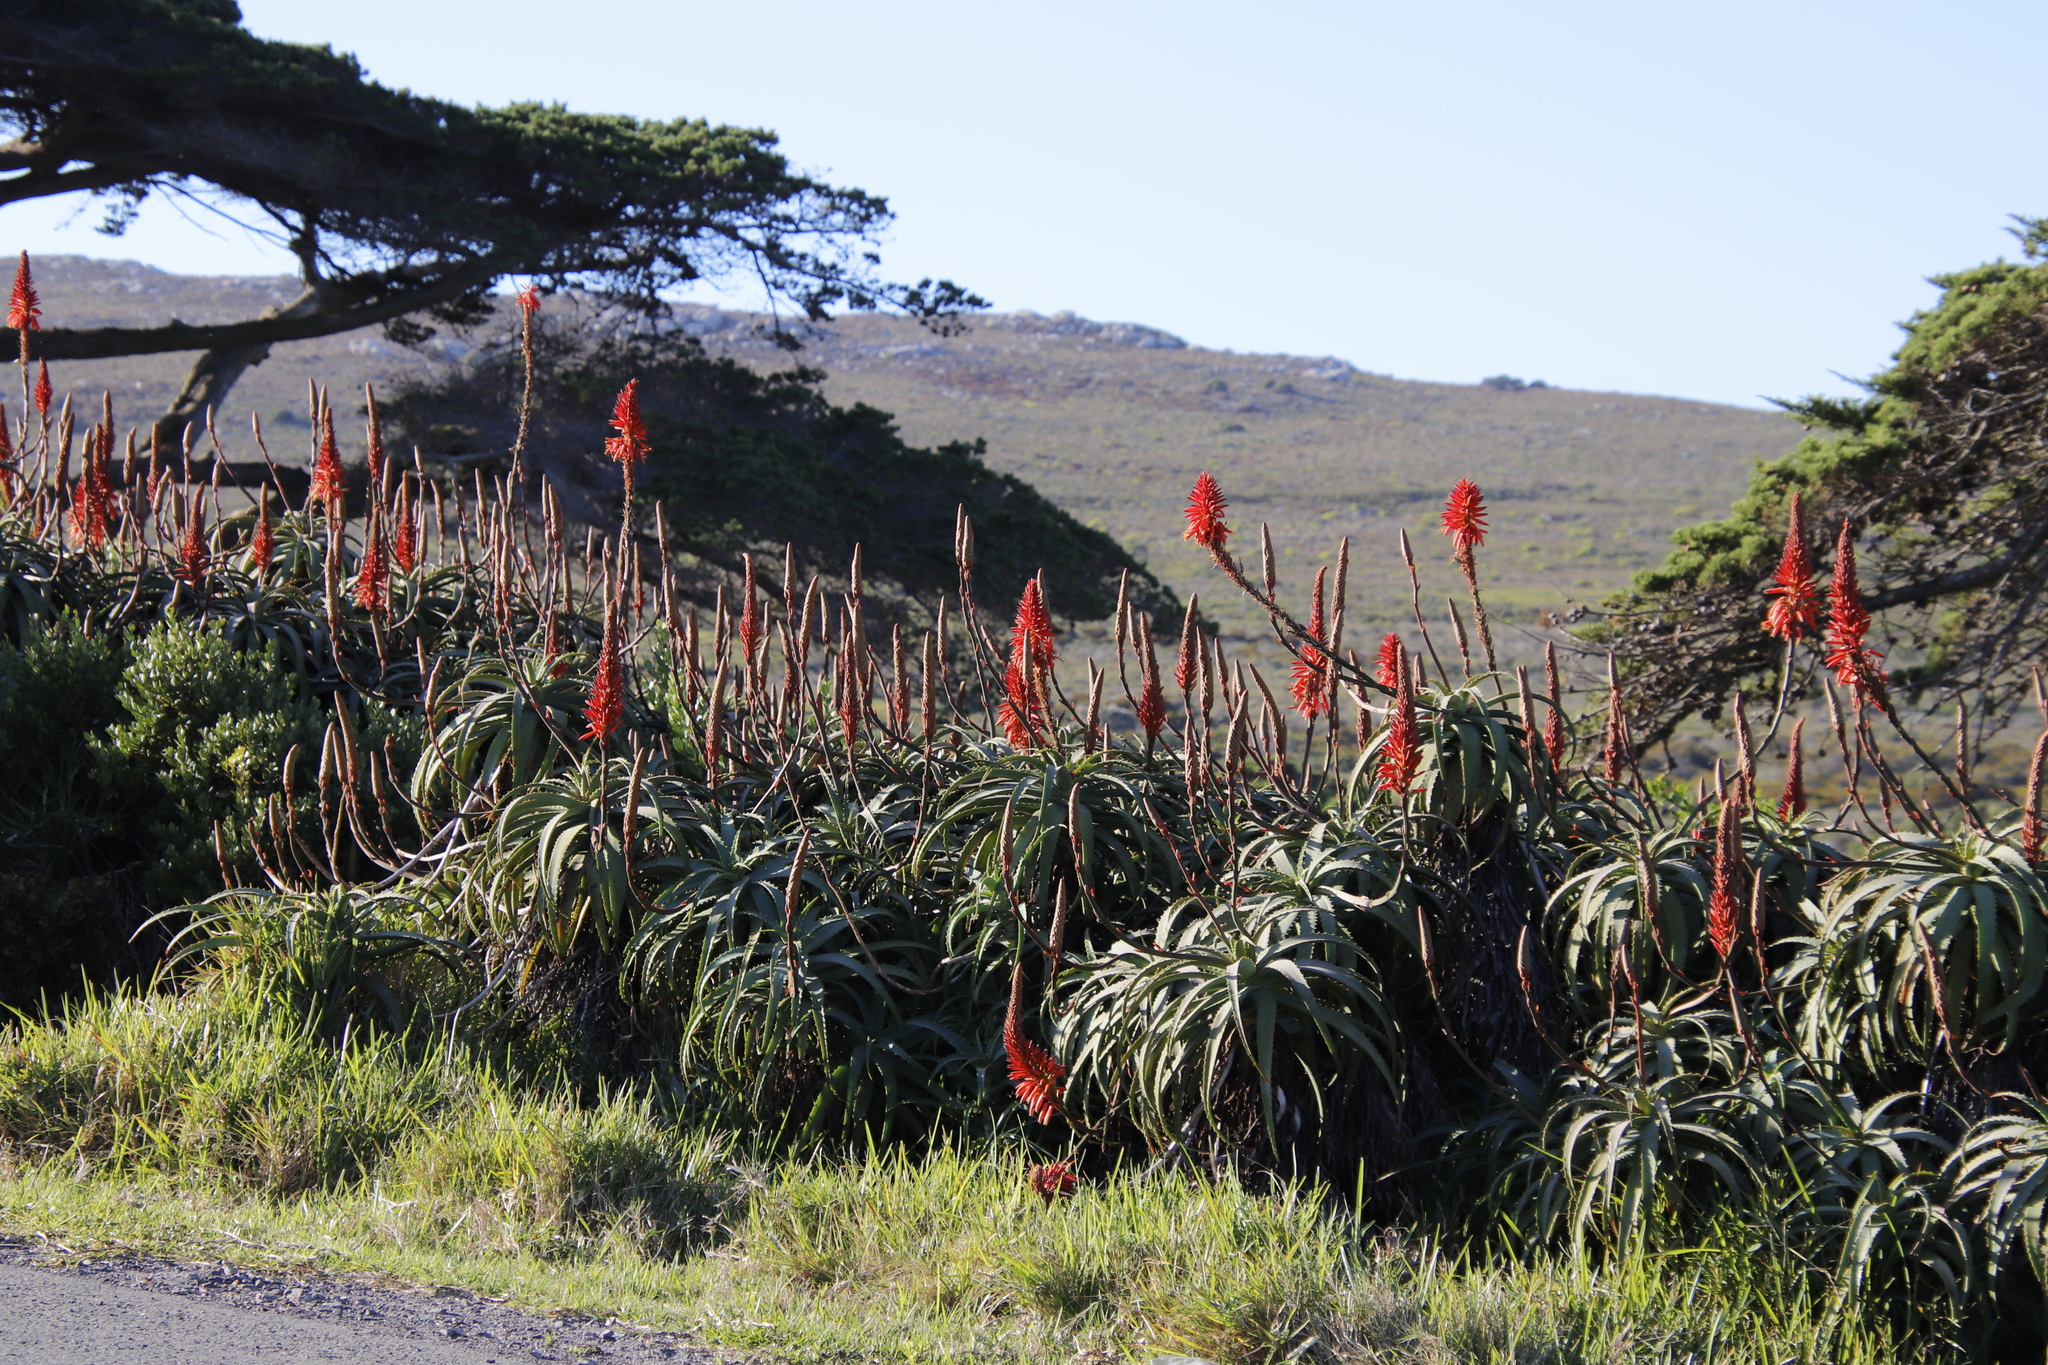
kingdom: Plantae
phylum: Tracheophyta
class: Liliopsida
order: Asparagales
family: Asphodelaceae
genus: Aloe
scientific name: Aloe arborescens
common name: Candelabra aloe
